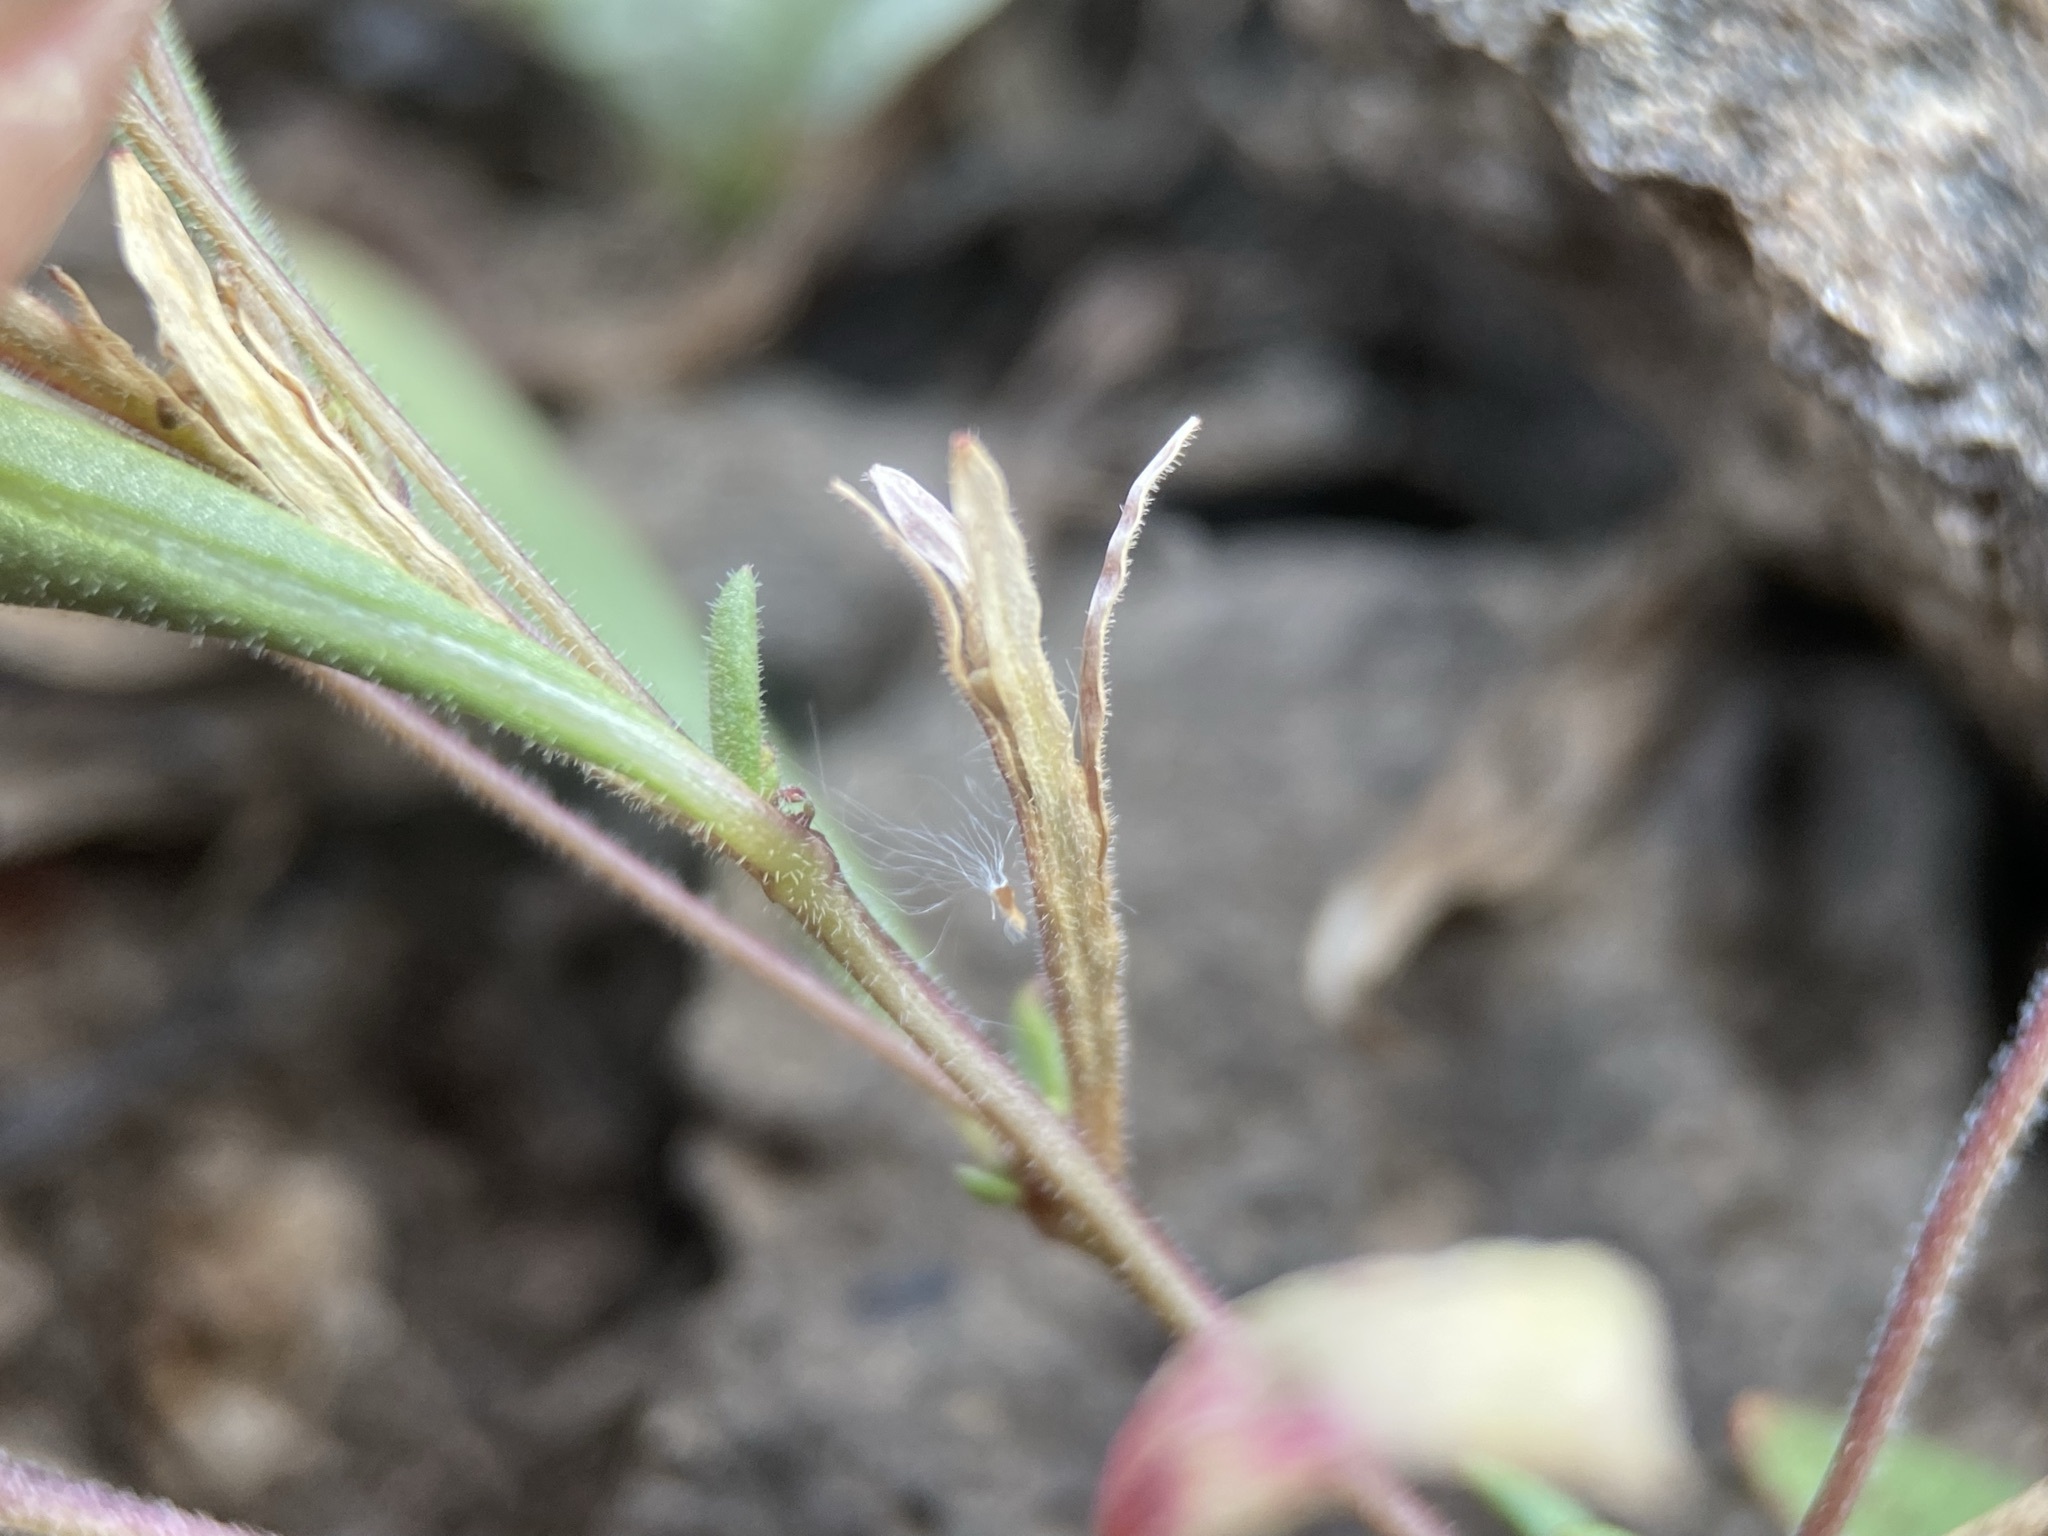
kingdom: Plantae
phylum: Tracheophyta
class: Magnoliopsida
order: Myrtales
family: Onagraceae
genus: Gayophytum
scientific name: Gayophytum racemosum
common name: Blackfoot groundsmoke
